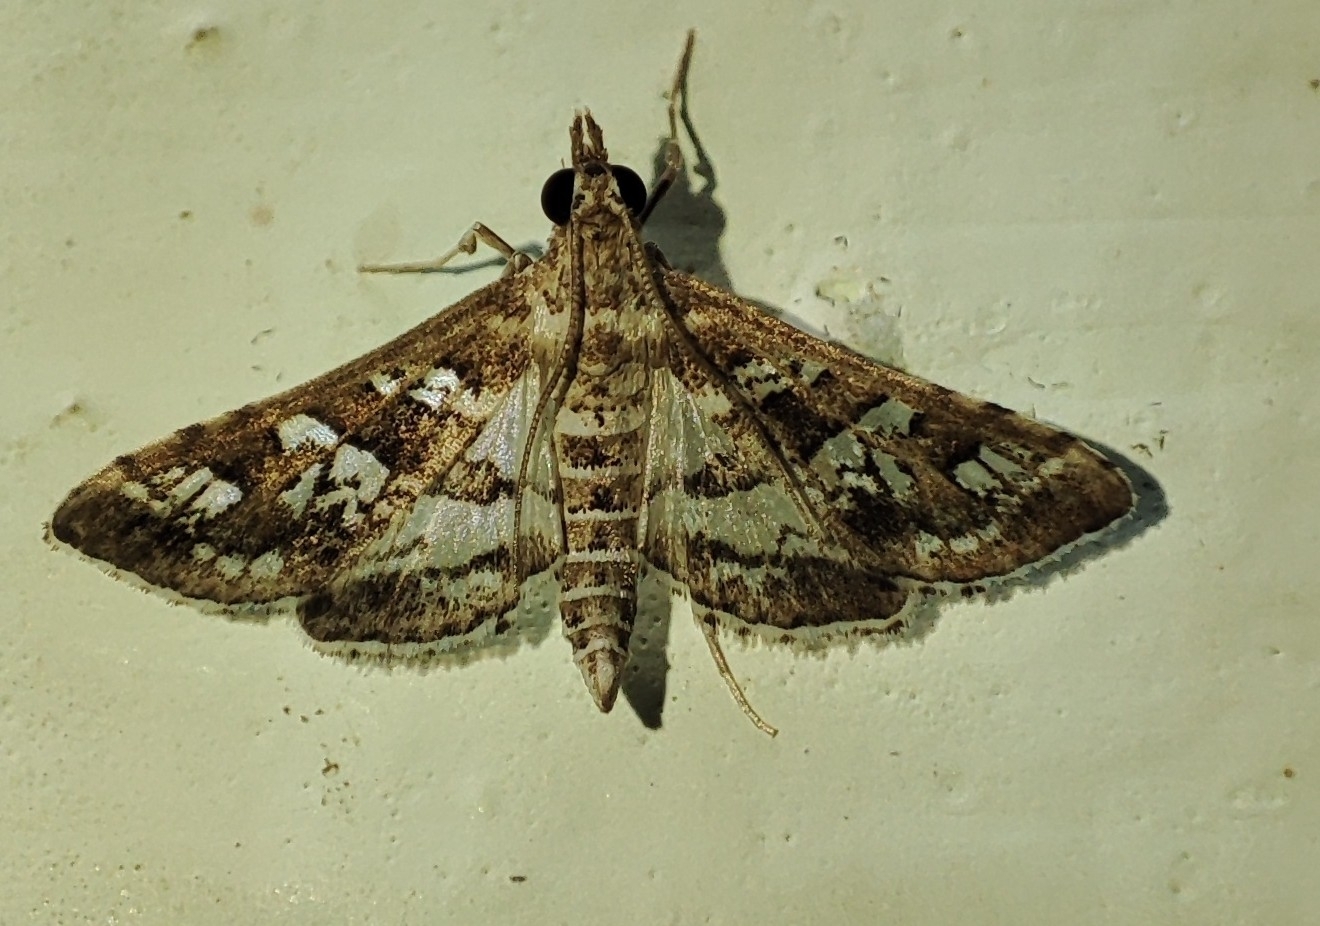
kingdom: Animalia
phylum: Arthropoda
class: Insecta
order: Lepidoptera
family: Crambidae
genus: Epipagis
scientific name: Epipagis peritalis
